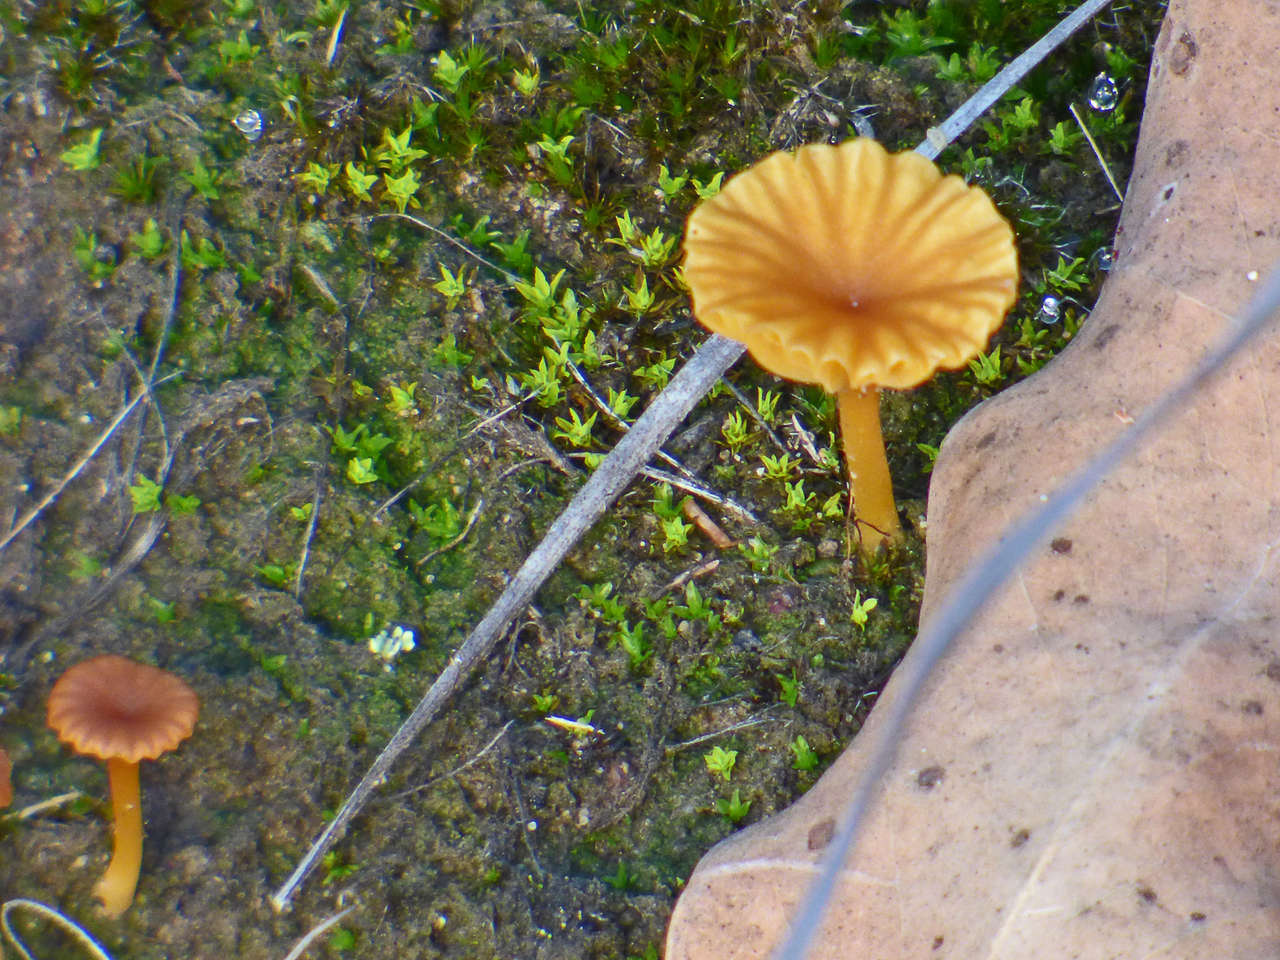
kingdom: Fungi
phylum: Basidiomycota
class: Agaricomycetes
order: Agaricales
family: Hygrophoraceae
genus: Lichenomphalia
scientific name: Lichenomphalia chromacea
